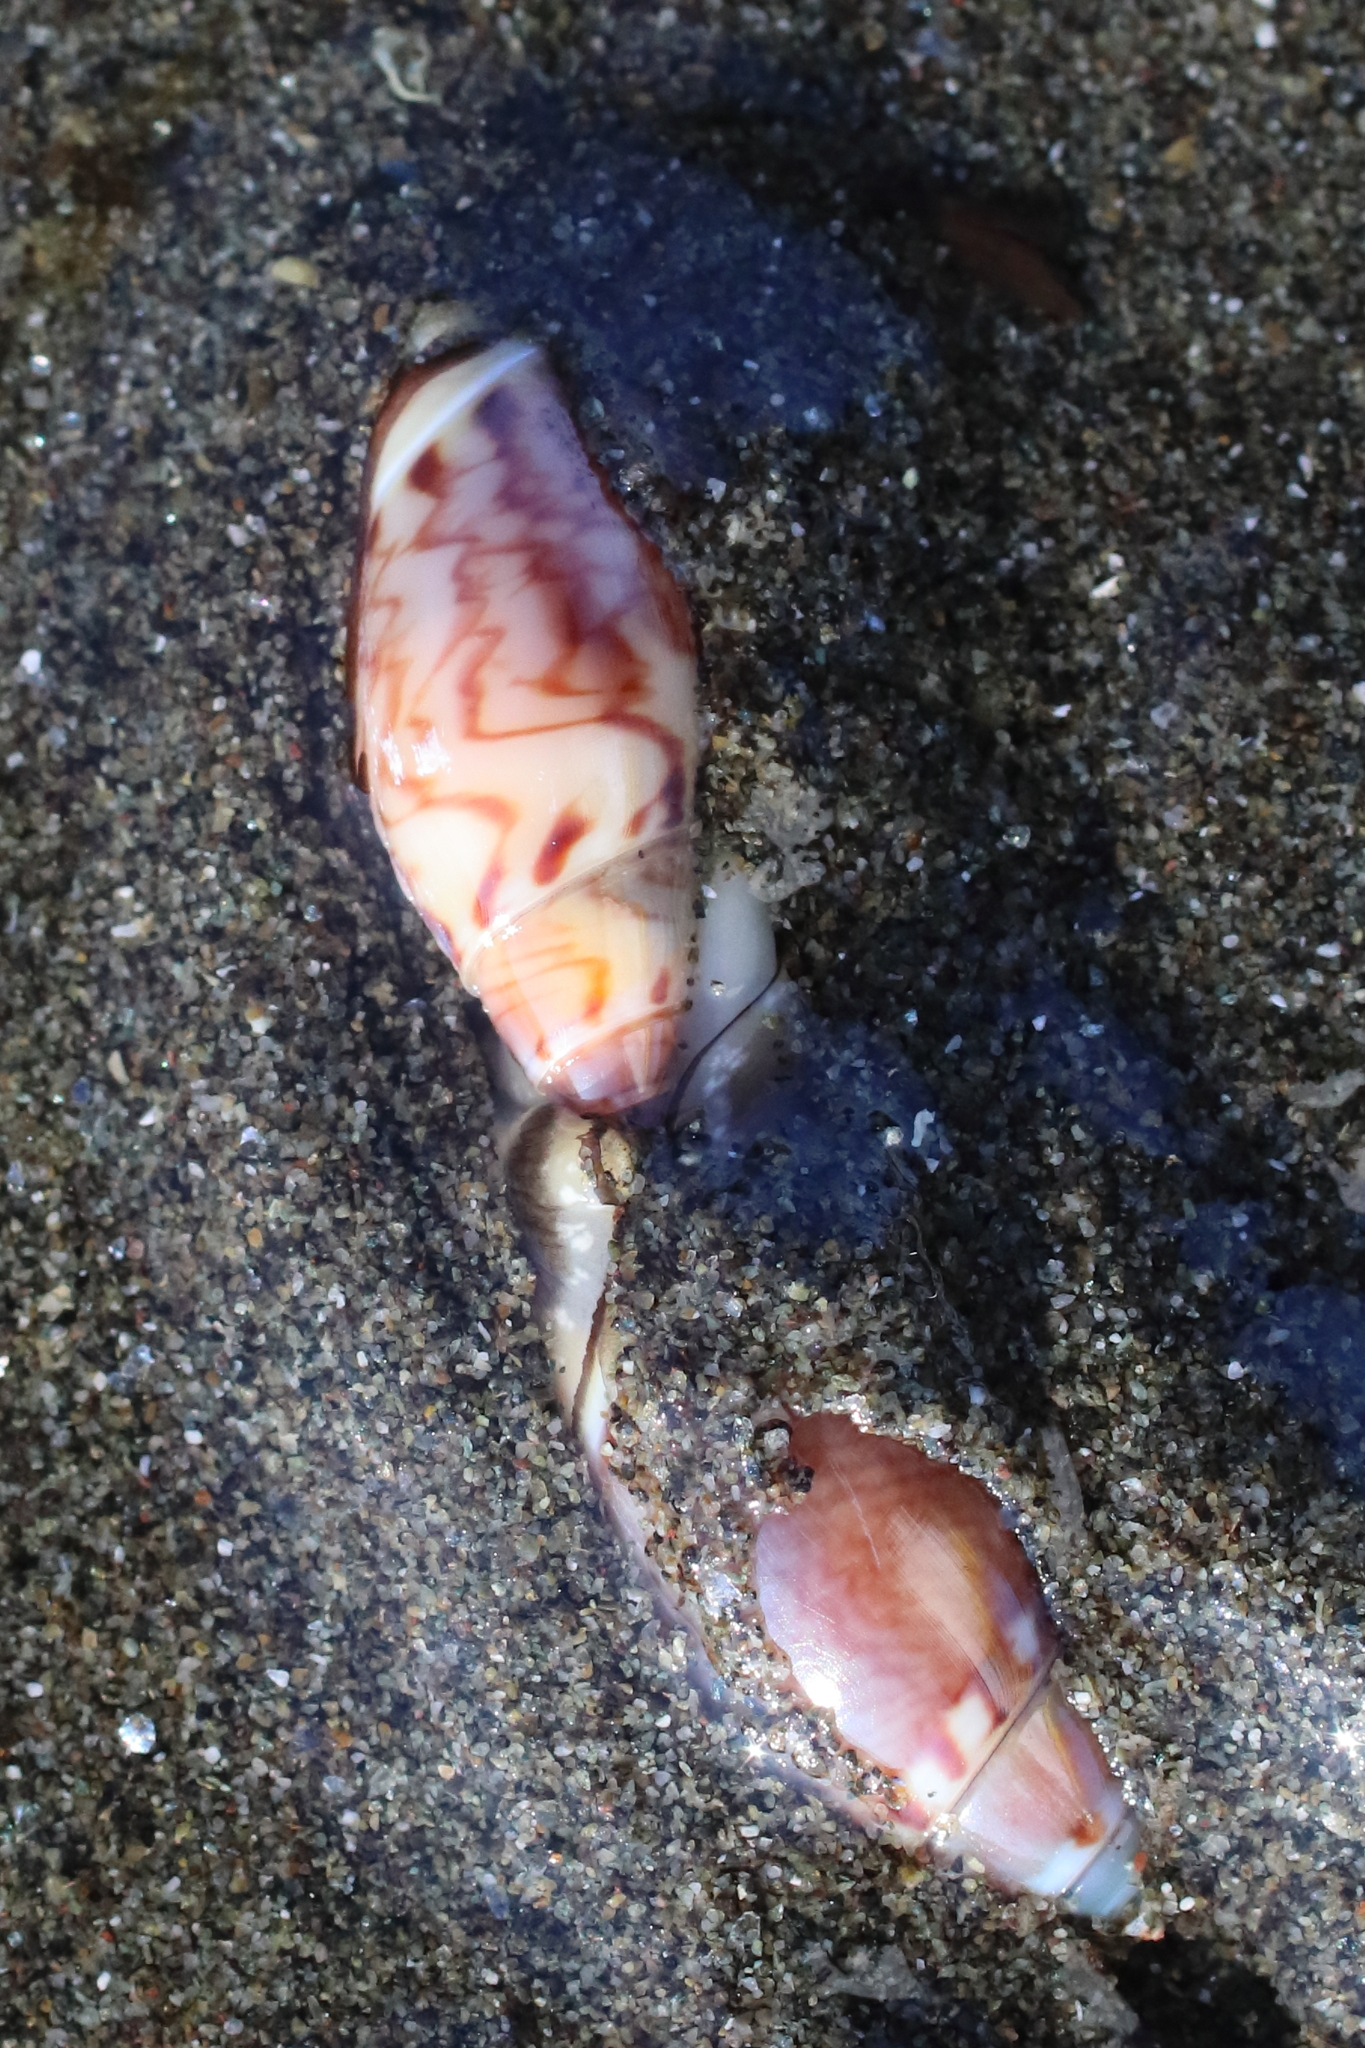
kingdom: Animalia
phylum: Mollusca
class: Gastropoda
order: Neogastropoda
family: Olividae
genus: Callianax
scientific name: Callianax alectona
